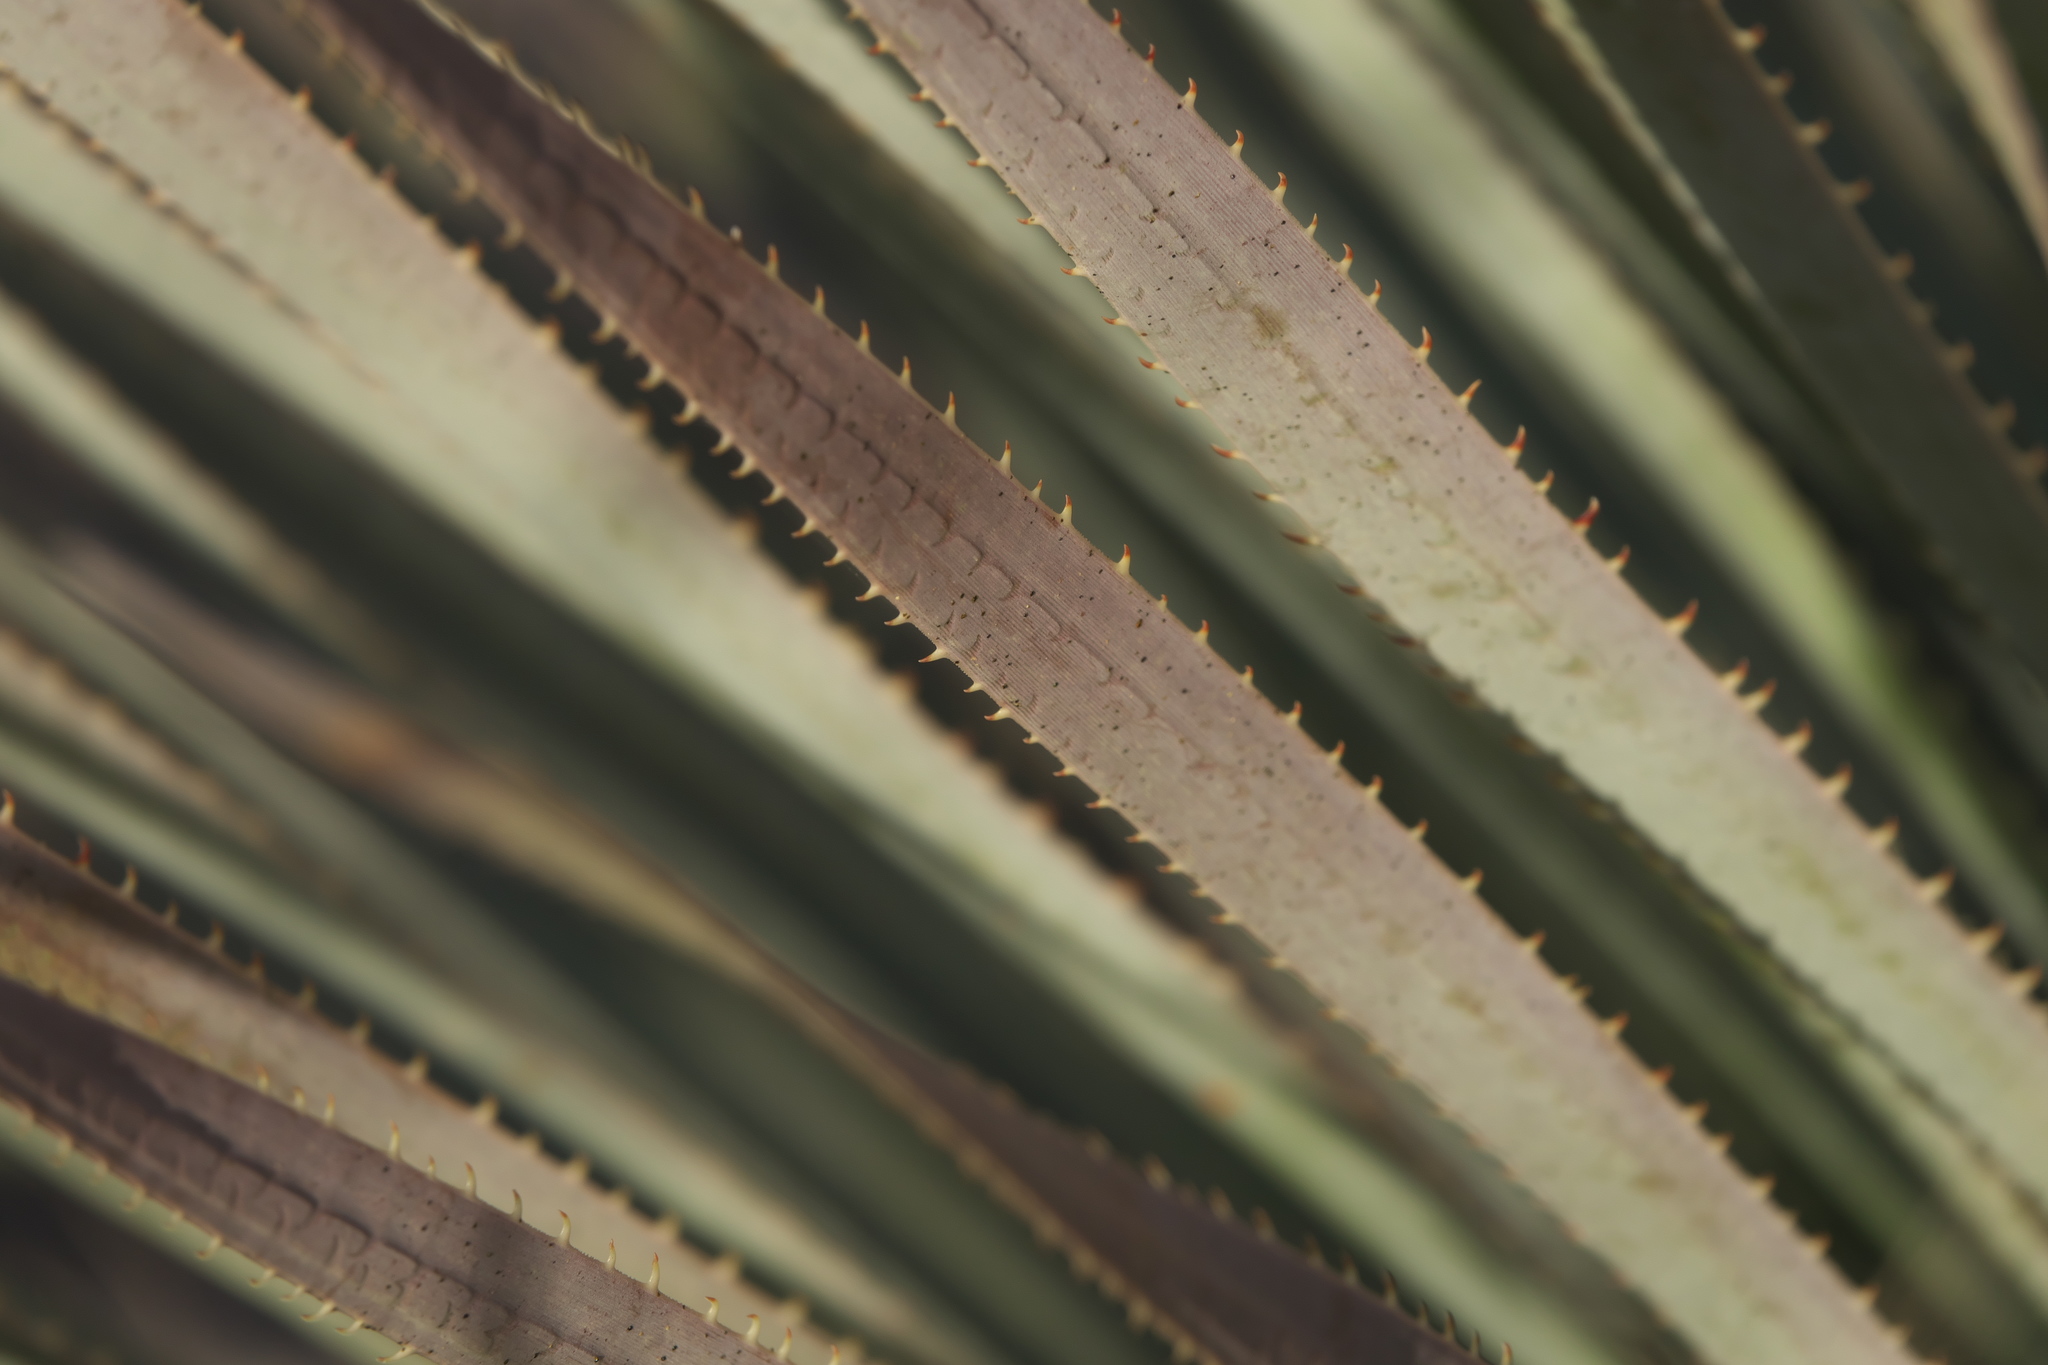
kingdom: Plantae
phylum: Tracheophyta
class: Liliopsida
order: Asparagales
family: Asparagaceae
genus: Dasylirion
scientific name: Dasylirion wheeleri
